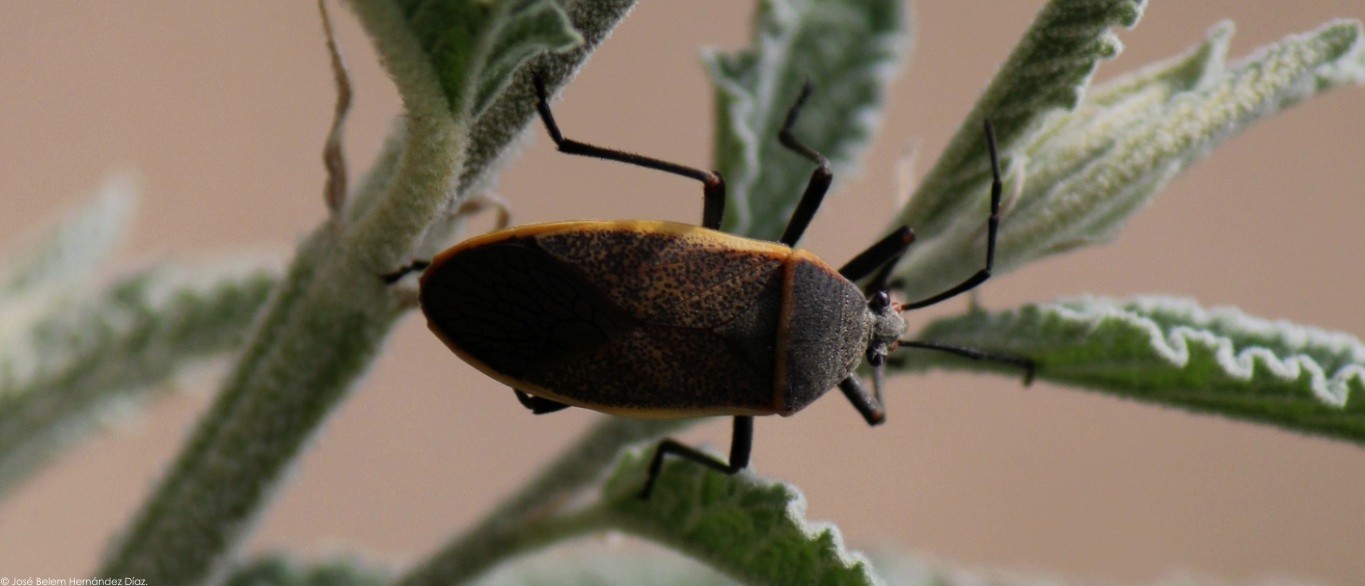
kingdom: Animalia
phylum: Arthropoda
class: Insecta
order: Hemiptera
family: Largidae
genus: Largus
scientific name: Largus convivus
